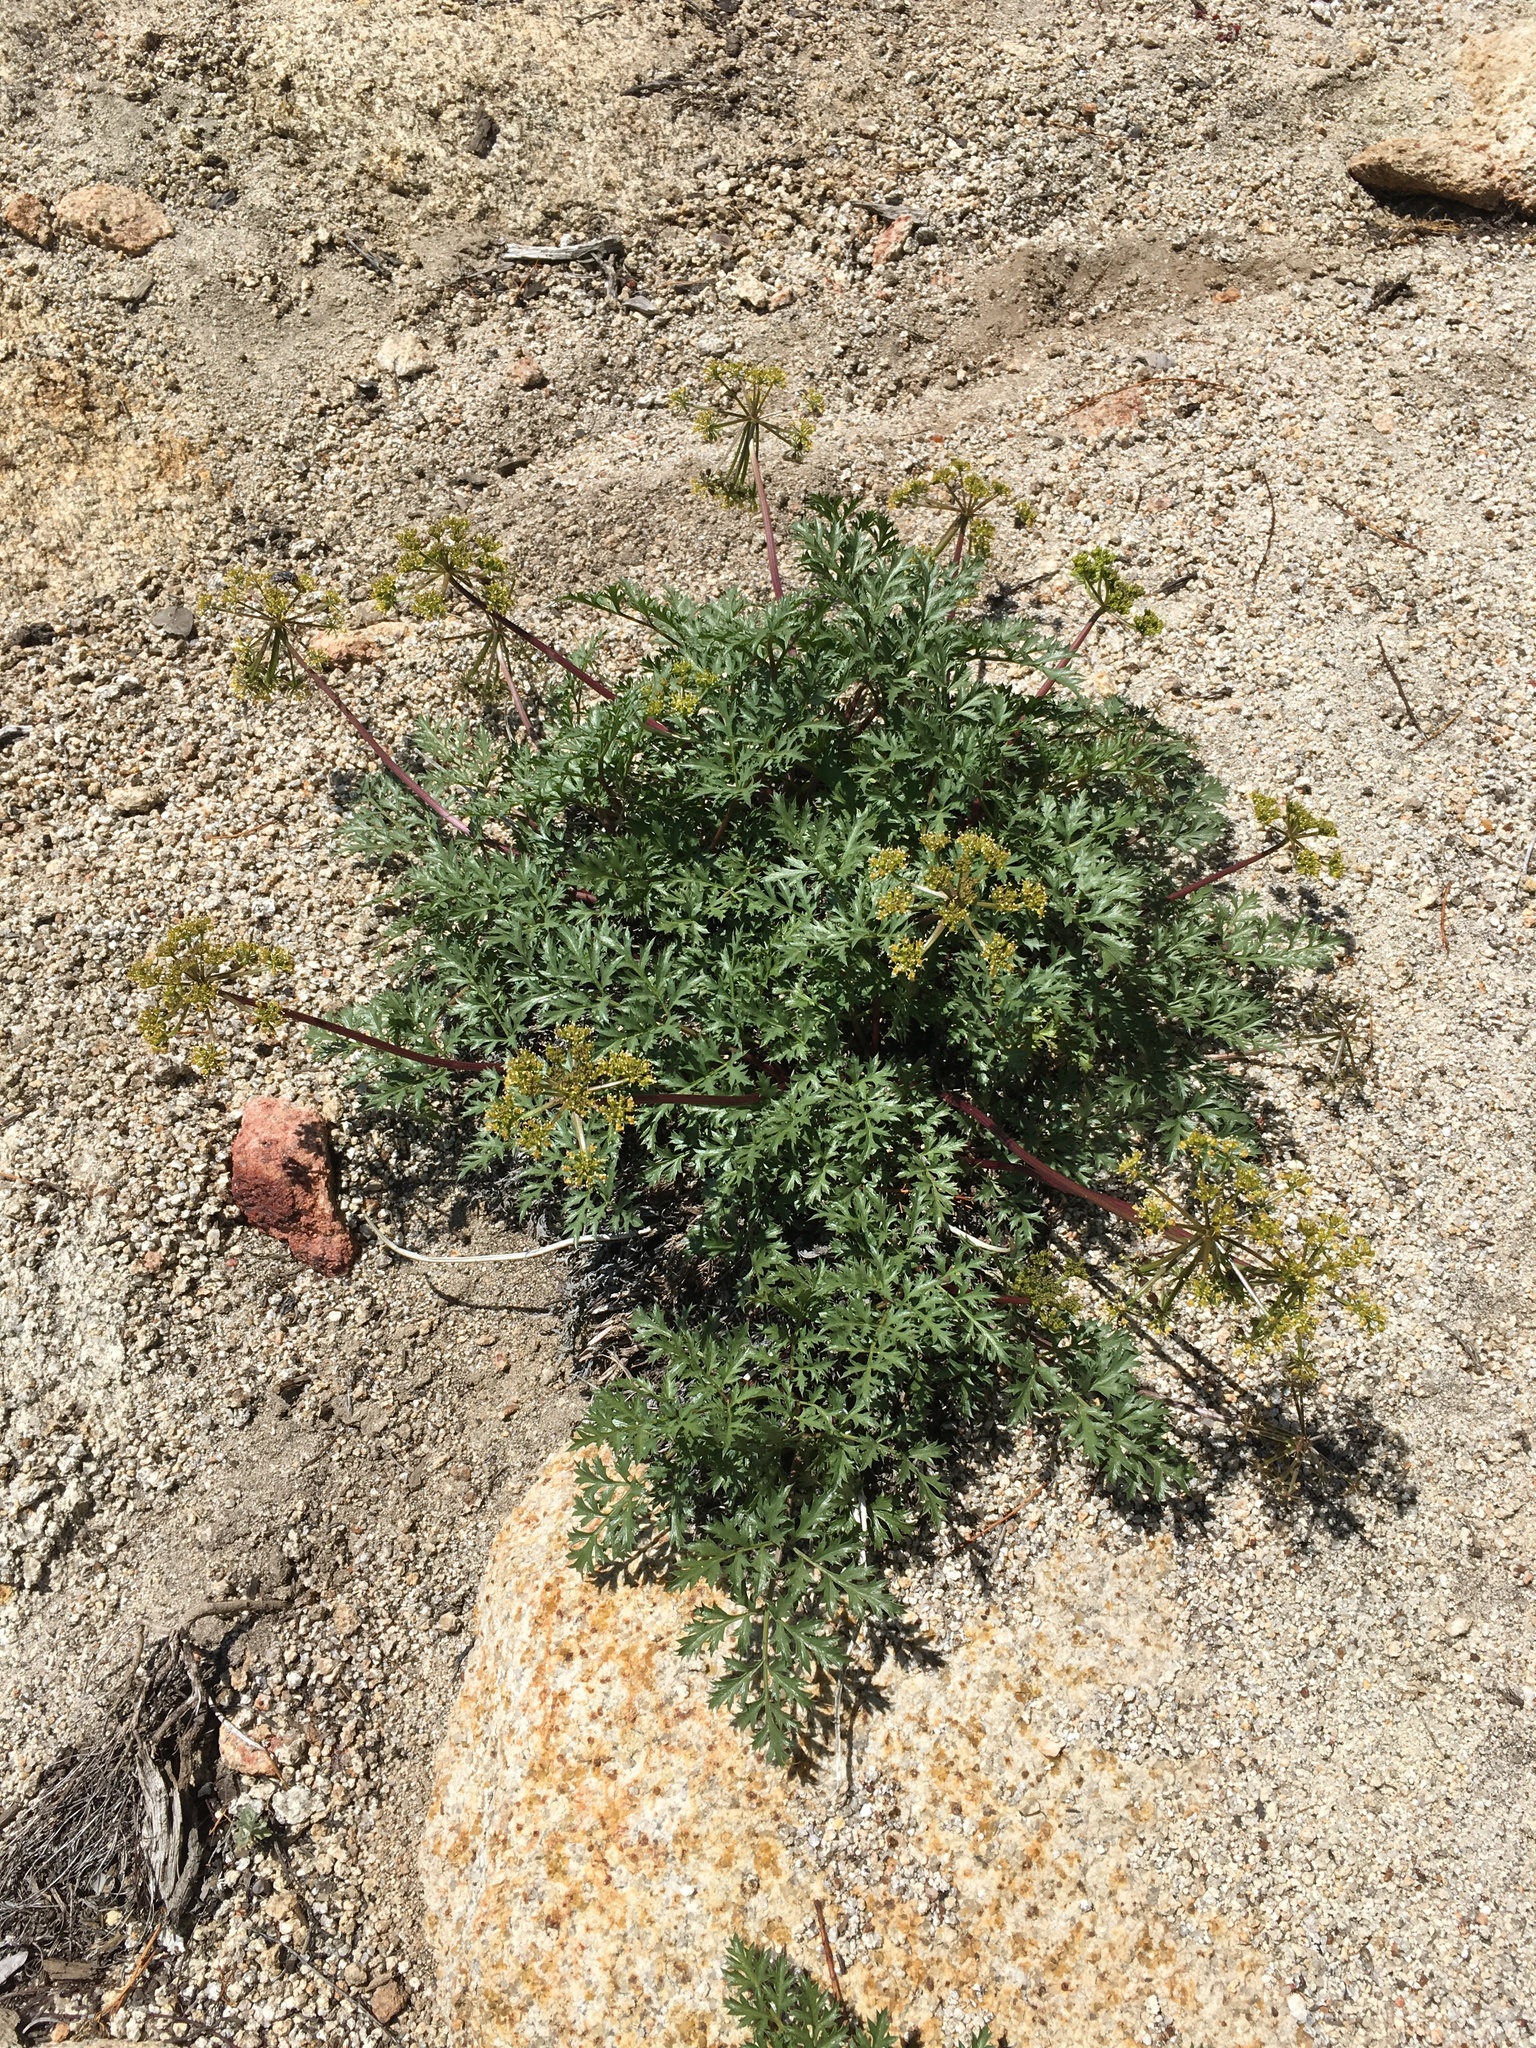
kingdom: Plantae
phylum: Tracheophyta
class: Magnoliopsida
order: Apiales
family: Apiaceae
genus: Tauschia
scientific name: Tauschia parishii
